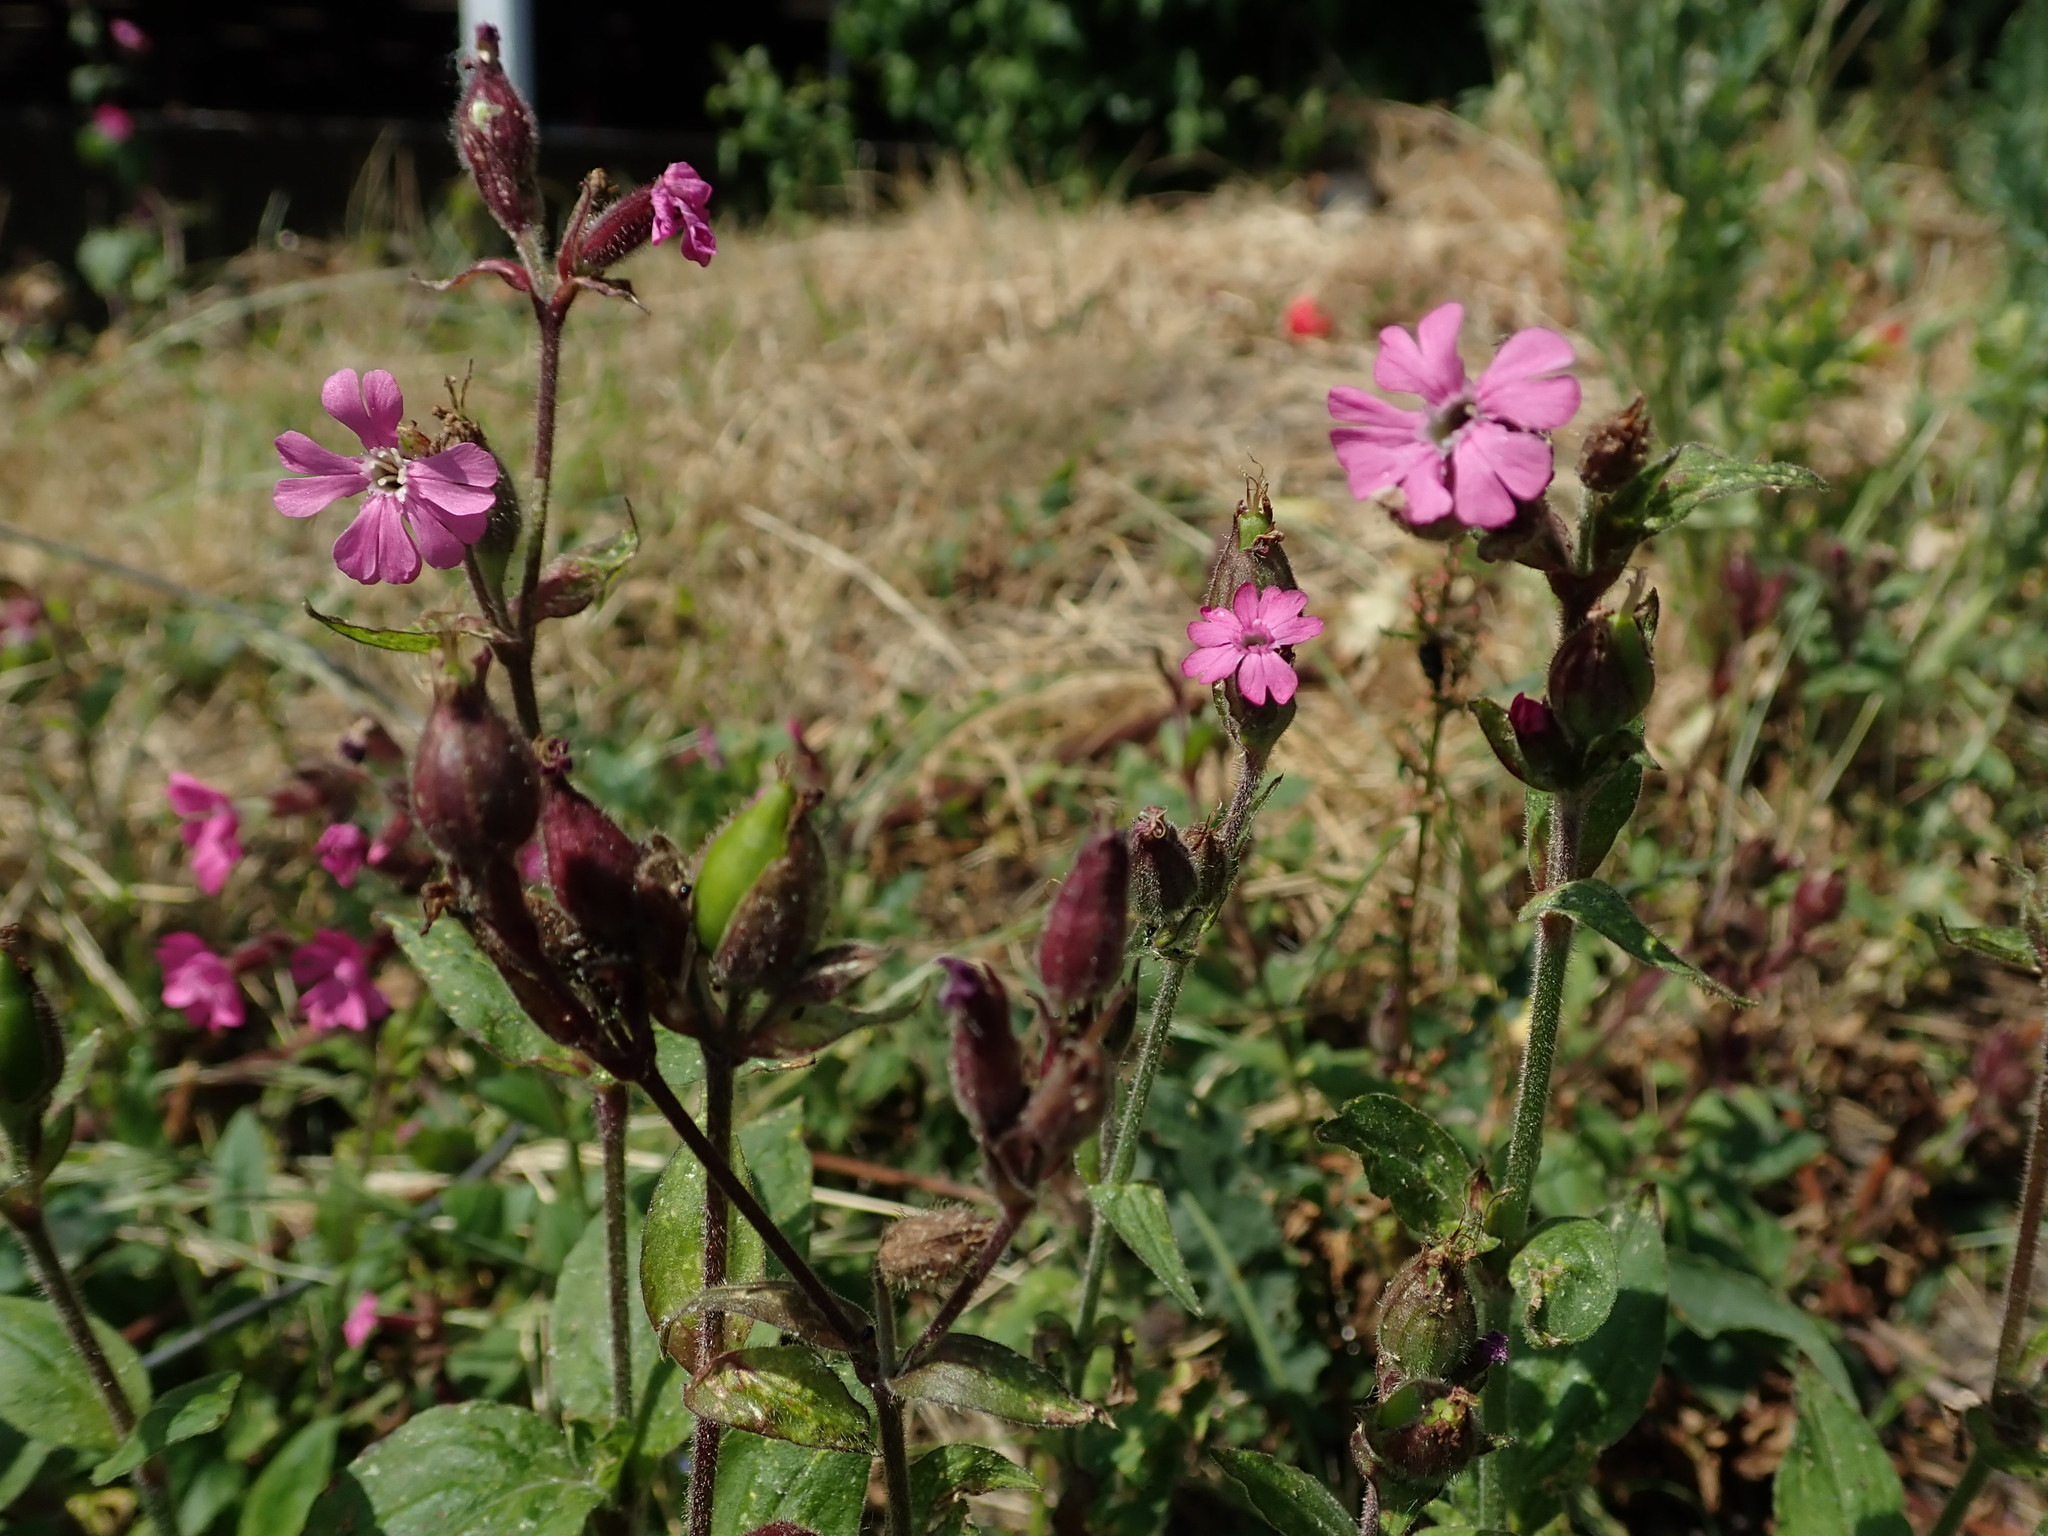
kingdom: Plantae
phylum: Tracheophyta
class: Magnoliopsida
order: Caryophyllales
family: Caryophyllaceae
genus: Silene
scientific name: Silene dioica
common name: Red campion
